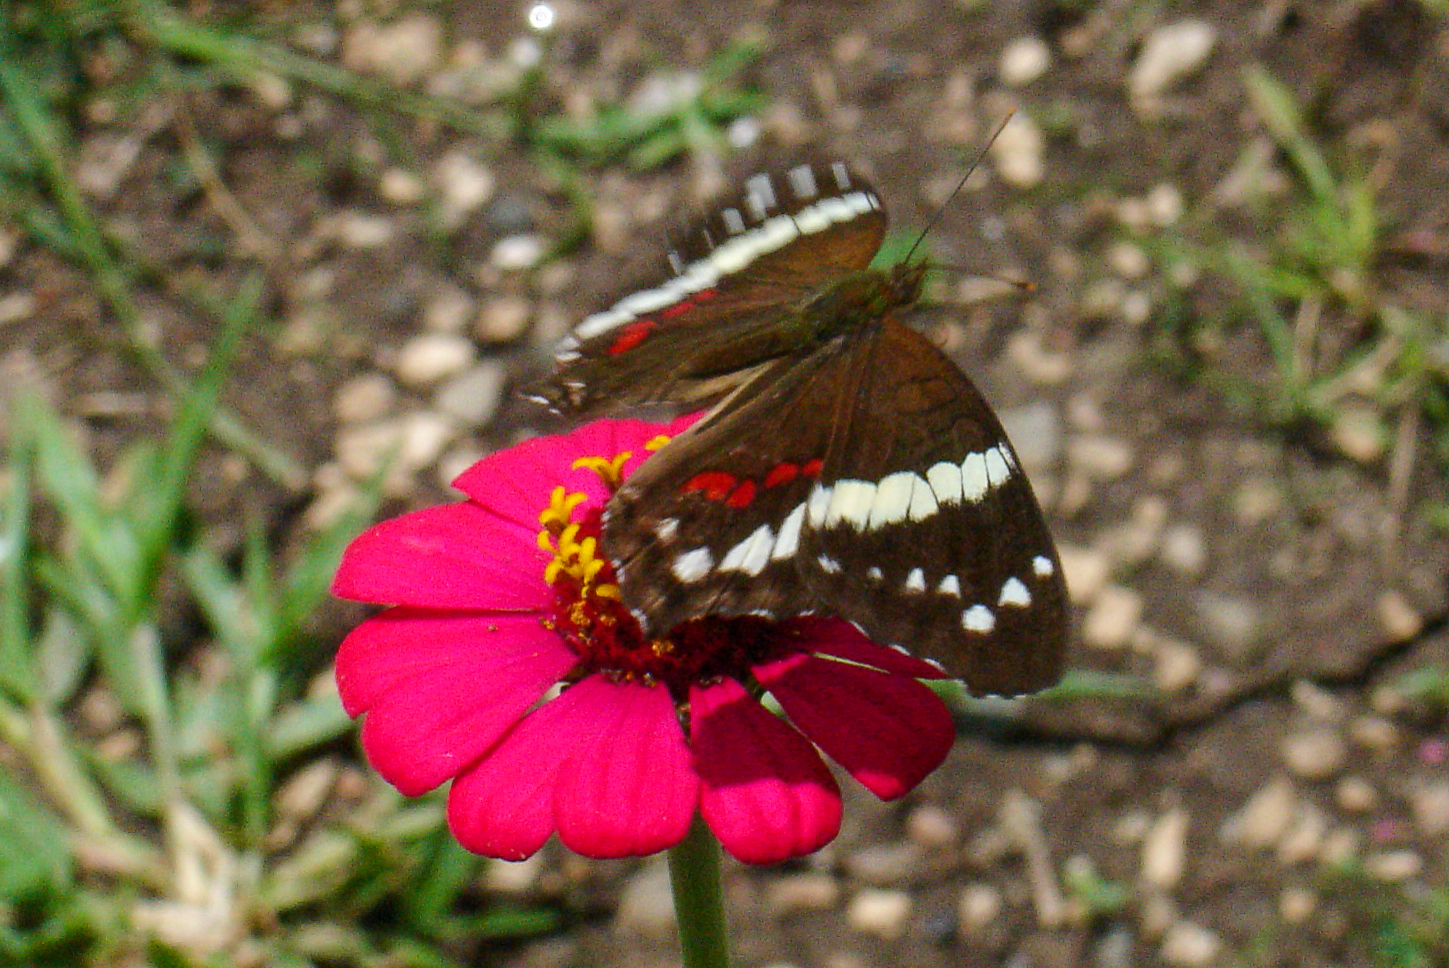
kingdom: Animalia
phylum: Arthropoda
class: Insecta
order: Lepidoptera
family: Nymphalidae
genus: Anartia
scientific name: Anartia fatima
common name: Banded peacock
